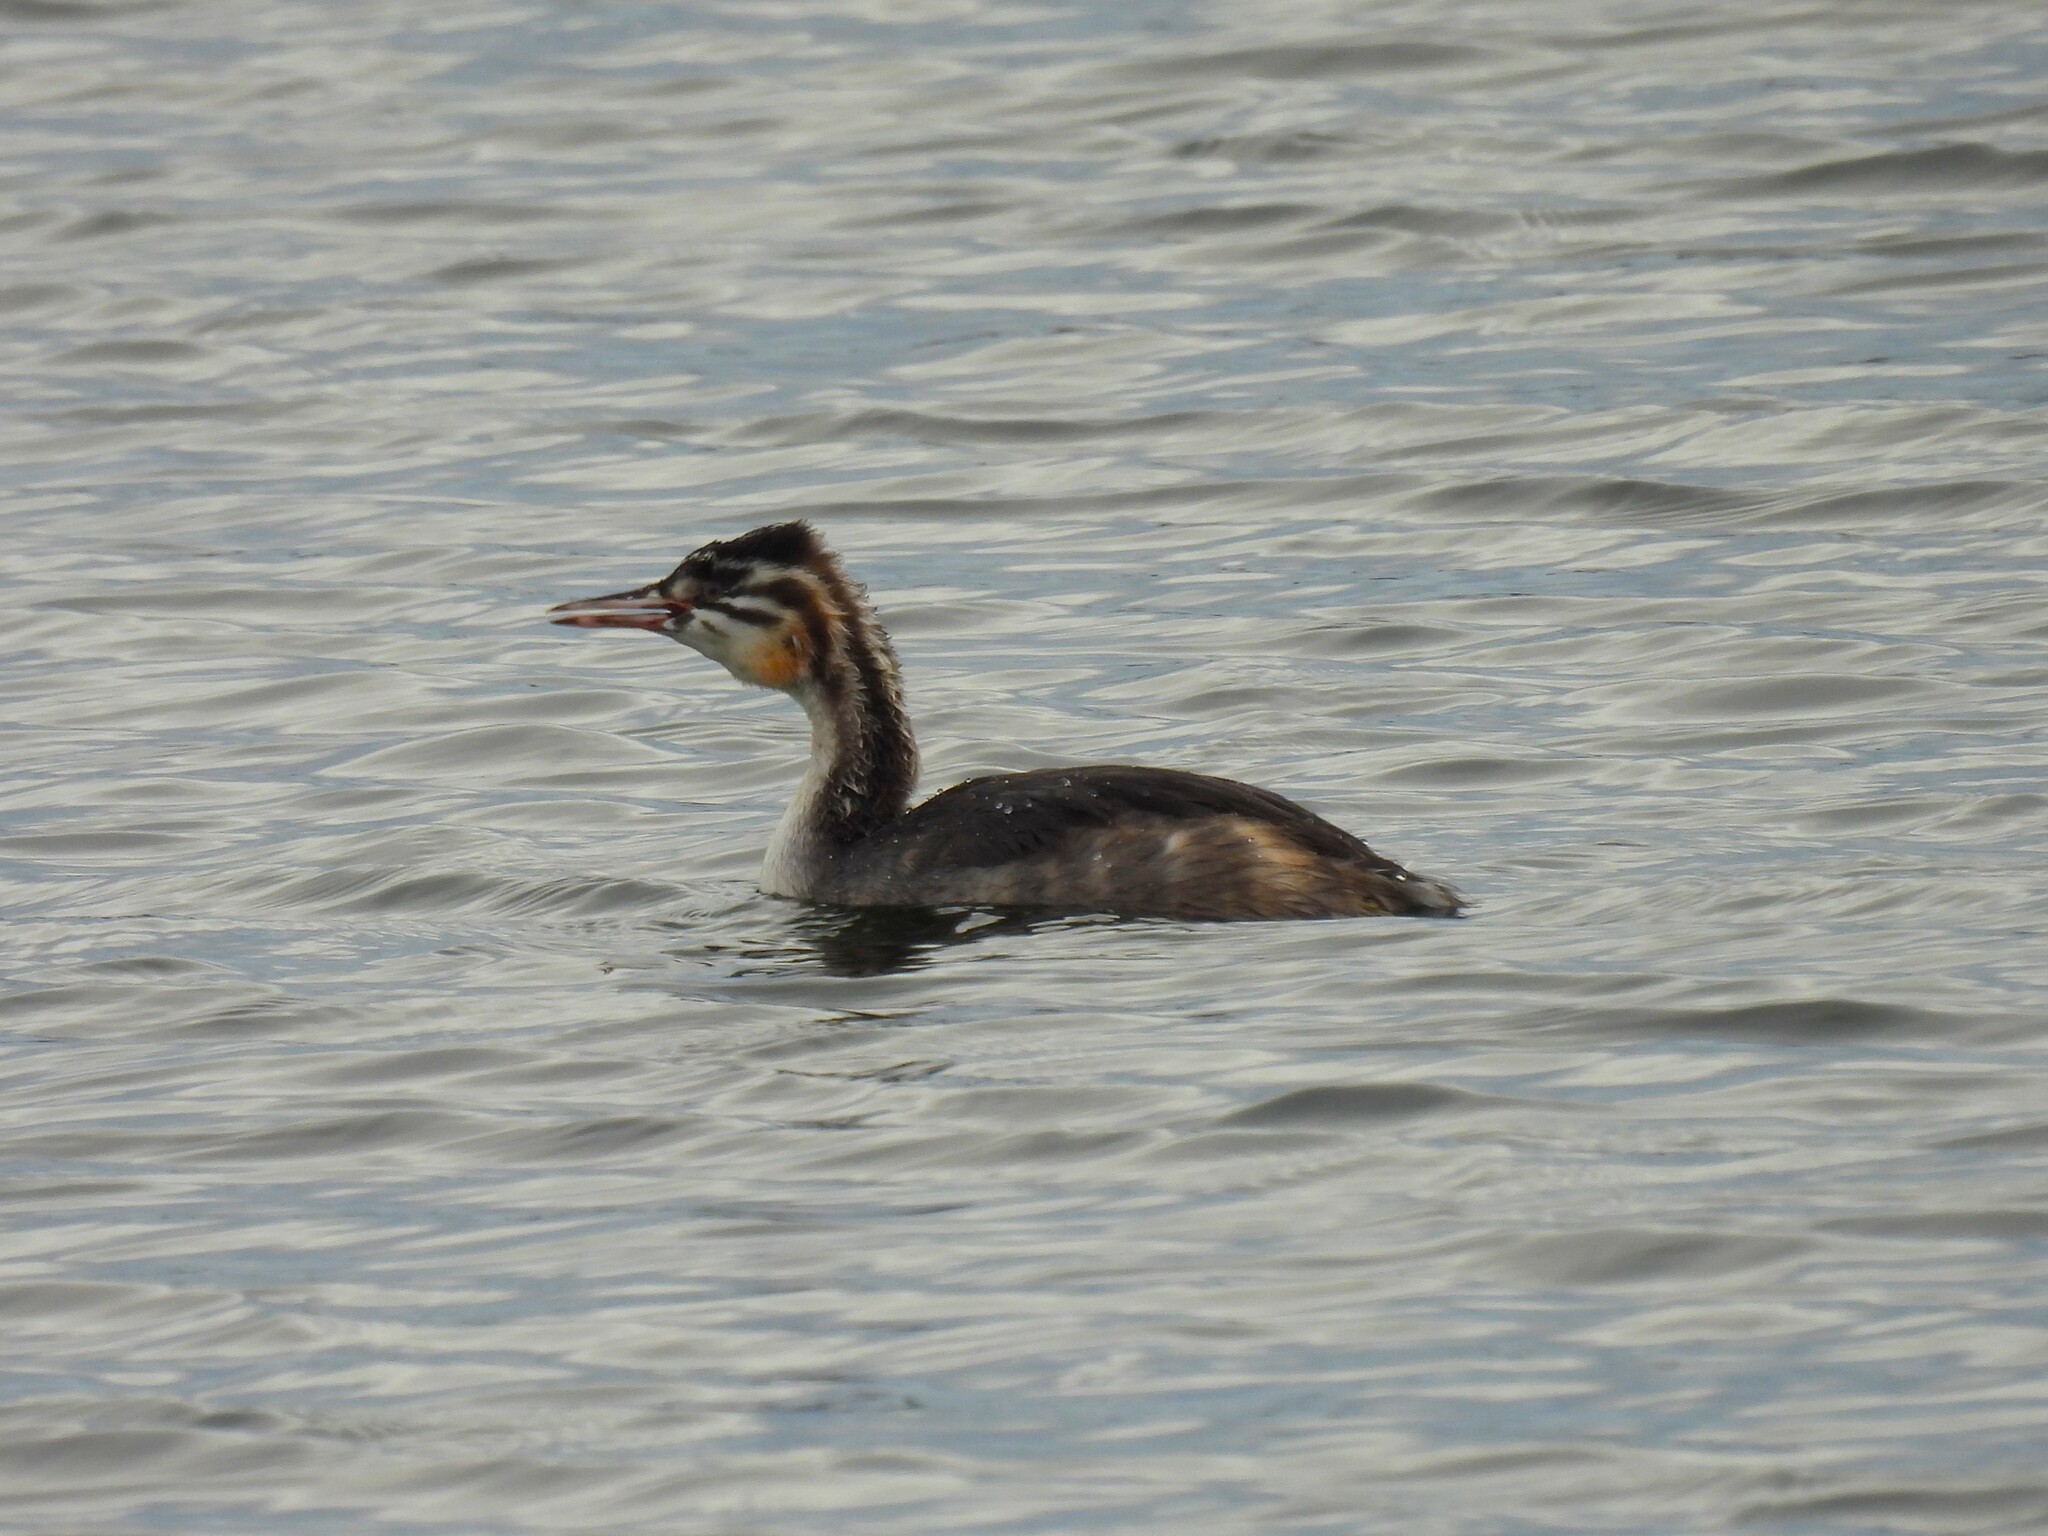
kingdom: Animalia
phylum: Chordata
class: Aves
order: Podicipediformes
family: Podicipedidae
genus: Podiceps
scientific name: Podiceps cristatus
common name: Great crested grebe
